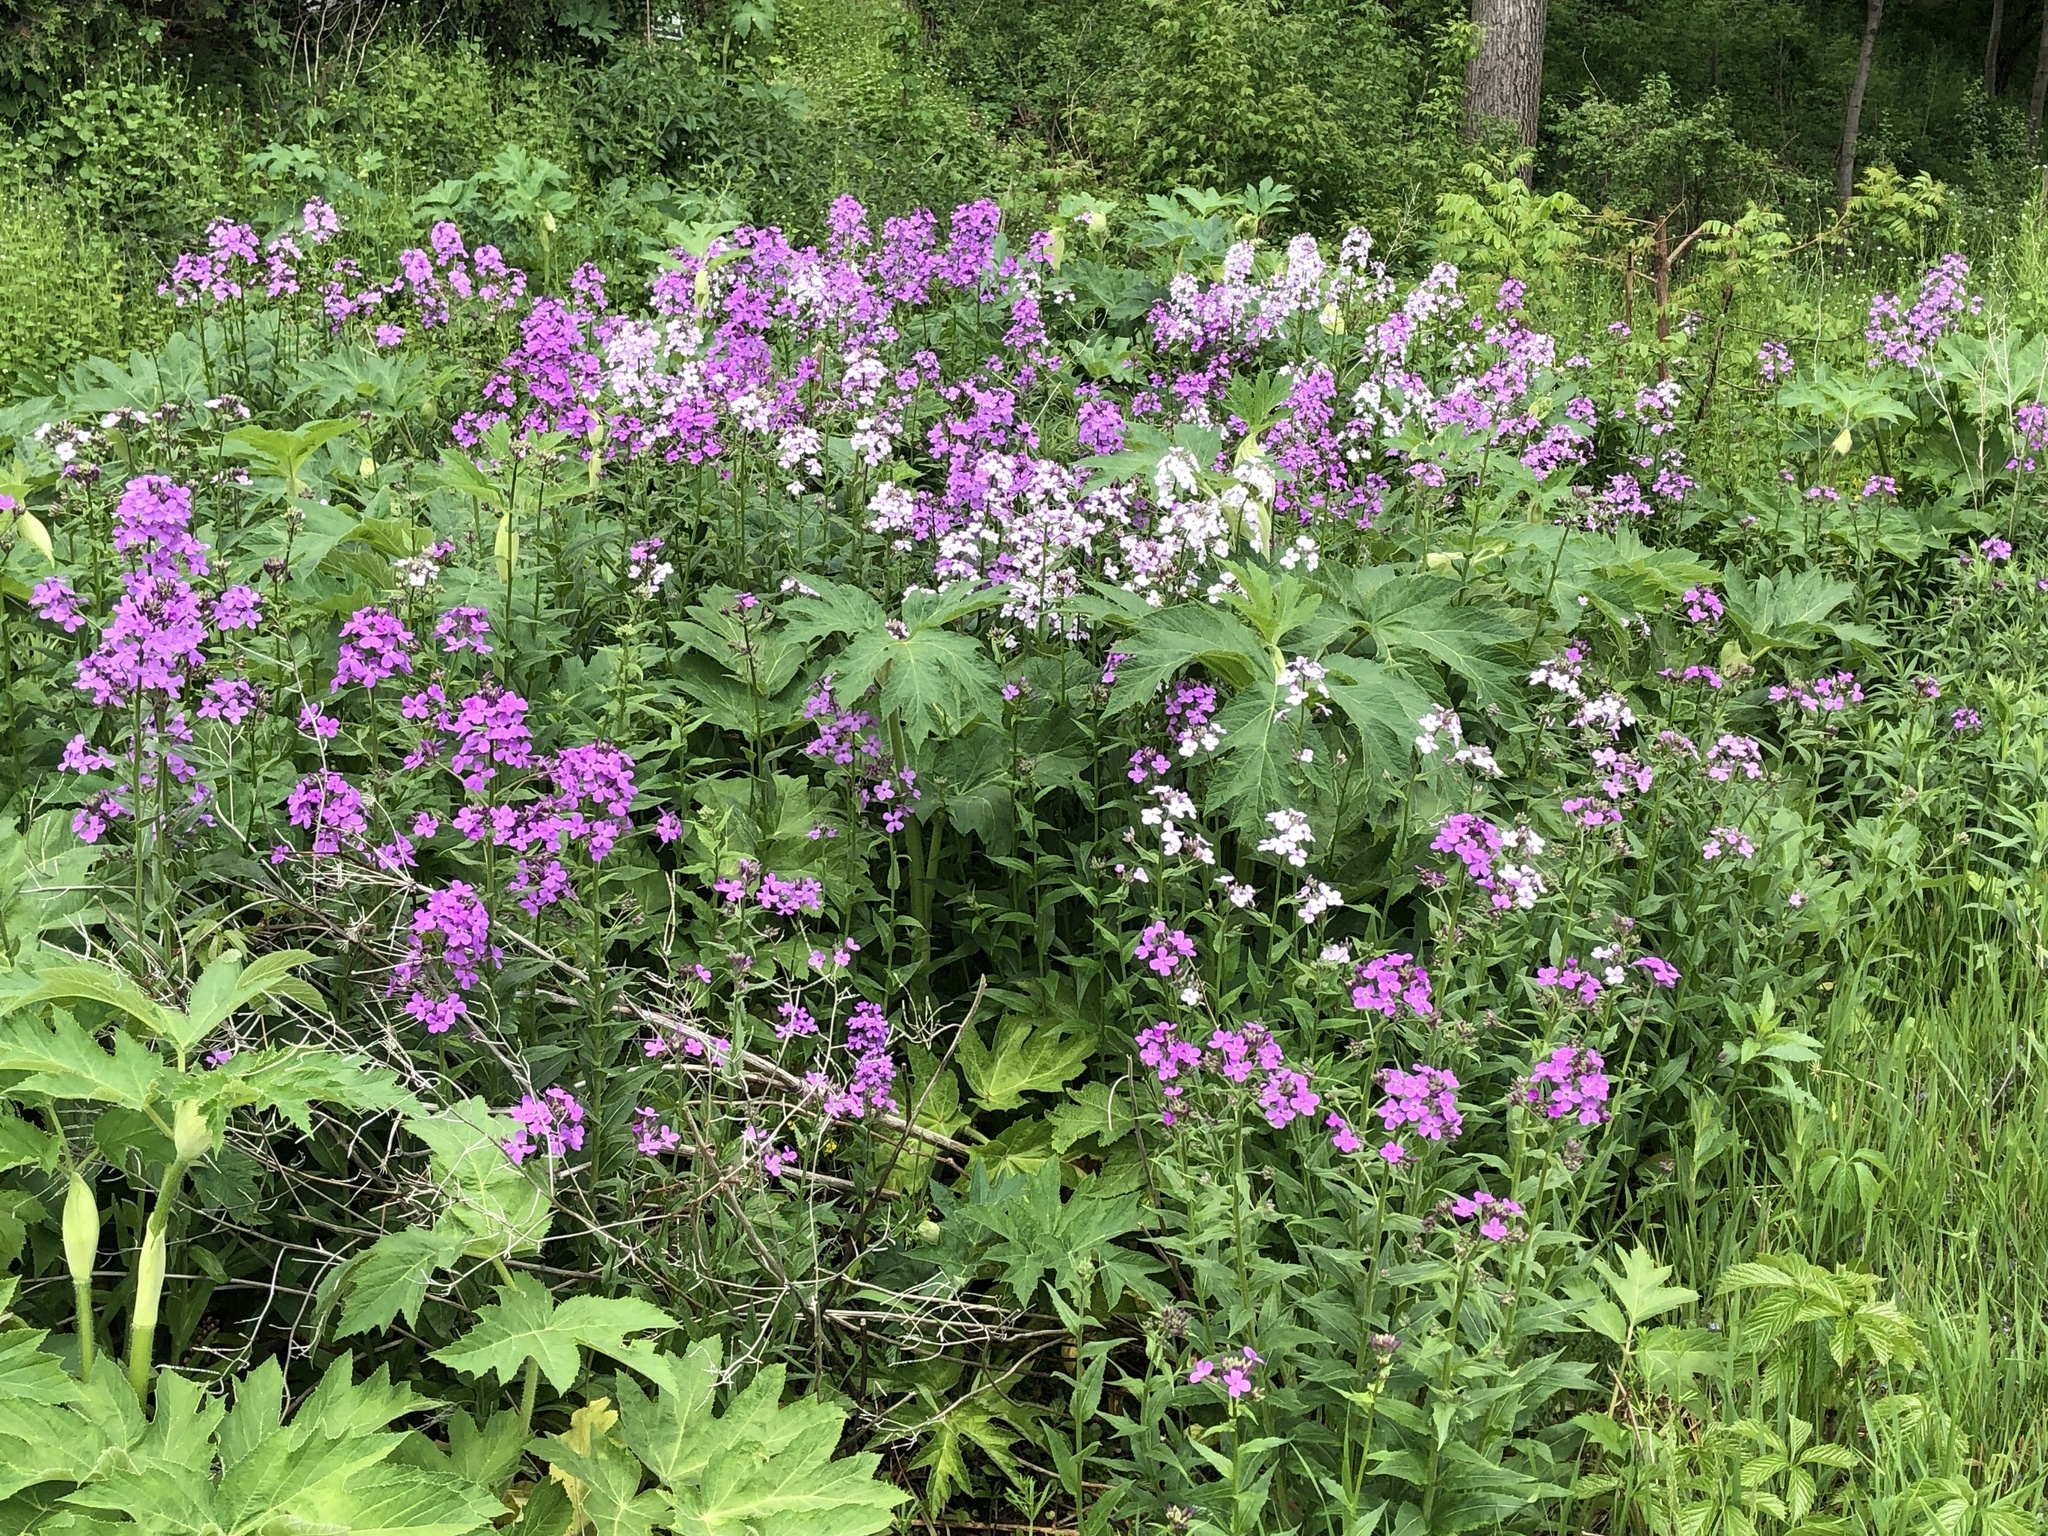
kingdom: Plantae
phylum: Tracheophyta
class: Magnoliopsida
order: Brassicales
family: Brassicaceae
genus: Hesperis
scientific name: Hesperis matronalis
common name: Dame's-violet
